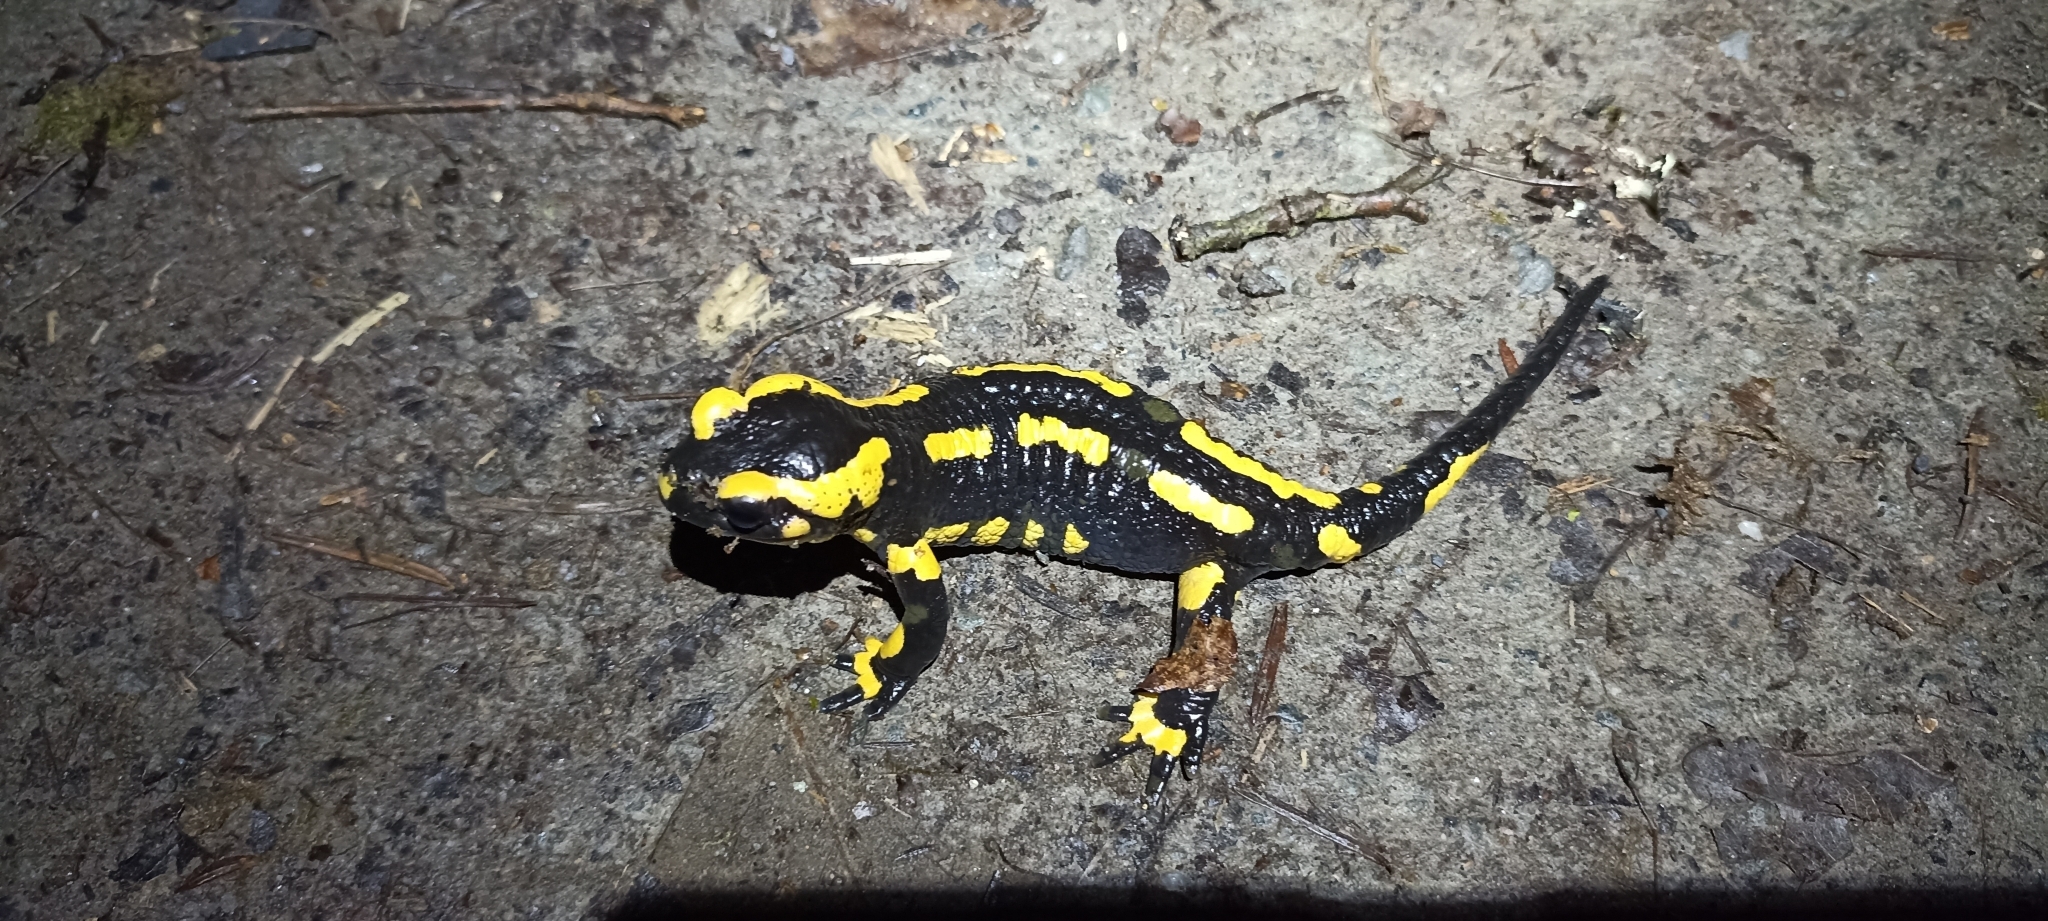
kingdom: Animalia
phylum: Chordata
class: Amphibia
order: Caudata
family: Salamandridae
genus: Salamandra
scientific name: Salamandra salamandra
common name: Fire salamander
